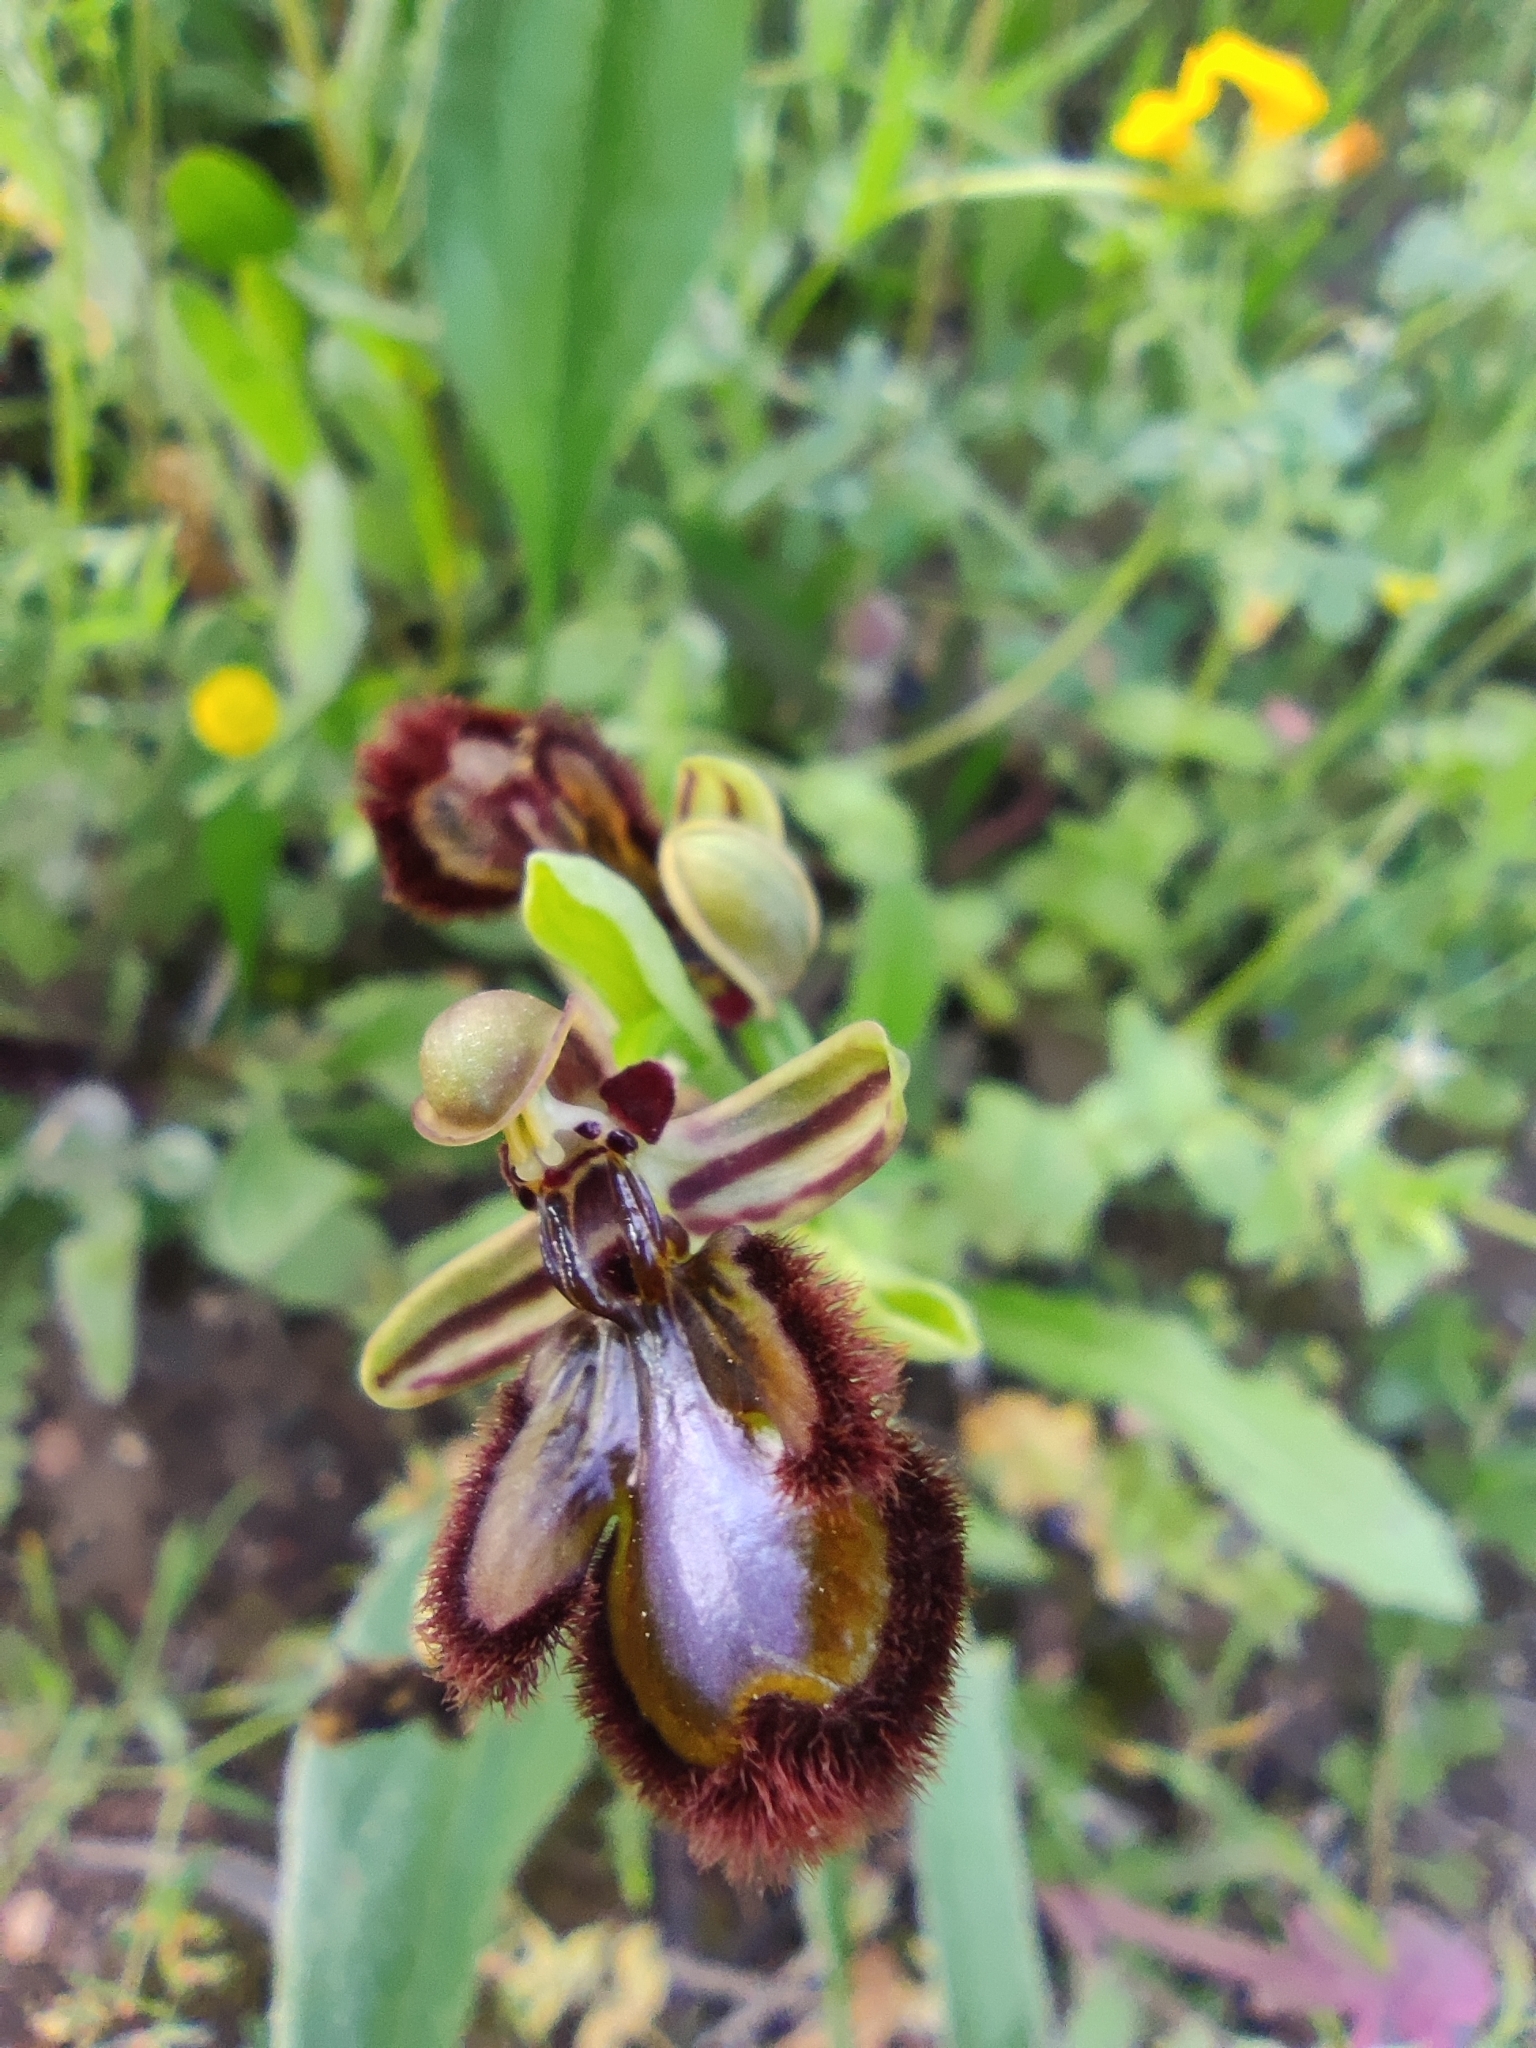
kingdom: Plantae
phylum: Tracheophyta
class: Liliopsida
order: Asparagales
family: Orchidaceae
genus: Ophrys
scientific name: Ophrys speculum
